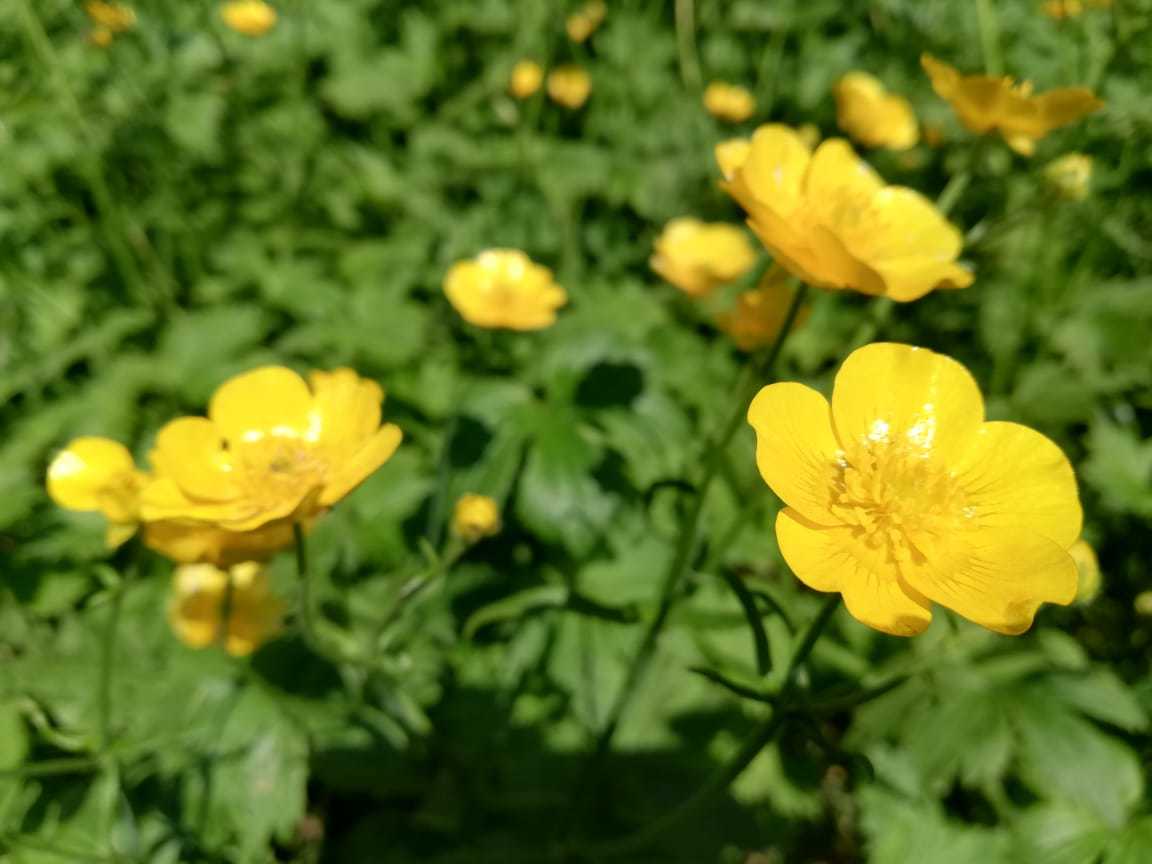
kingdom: Plantae
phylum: Tracheophyta
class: Magnoliopsida
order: Ranunculales
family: Ranunculaceae
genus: Ranunculus
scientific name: Ranunculus grandifolius
